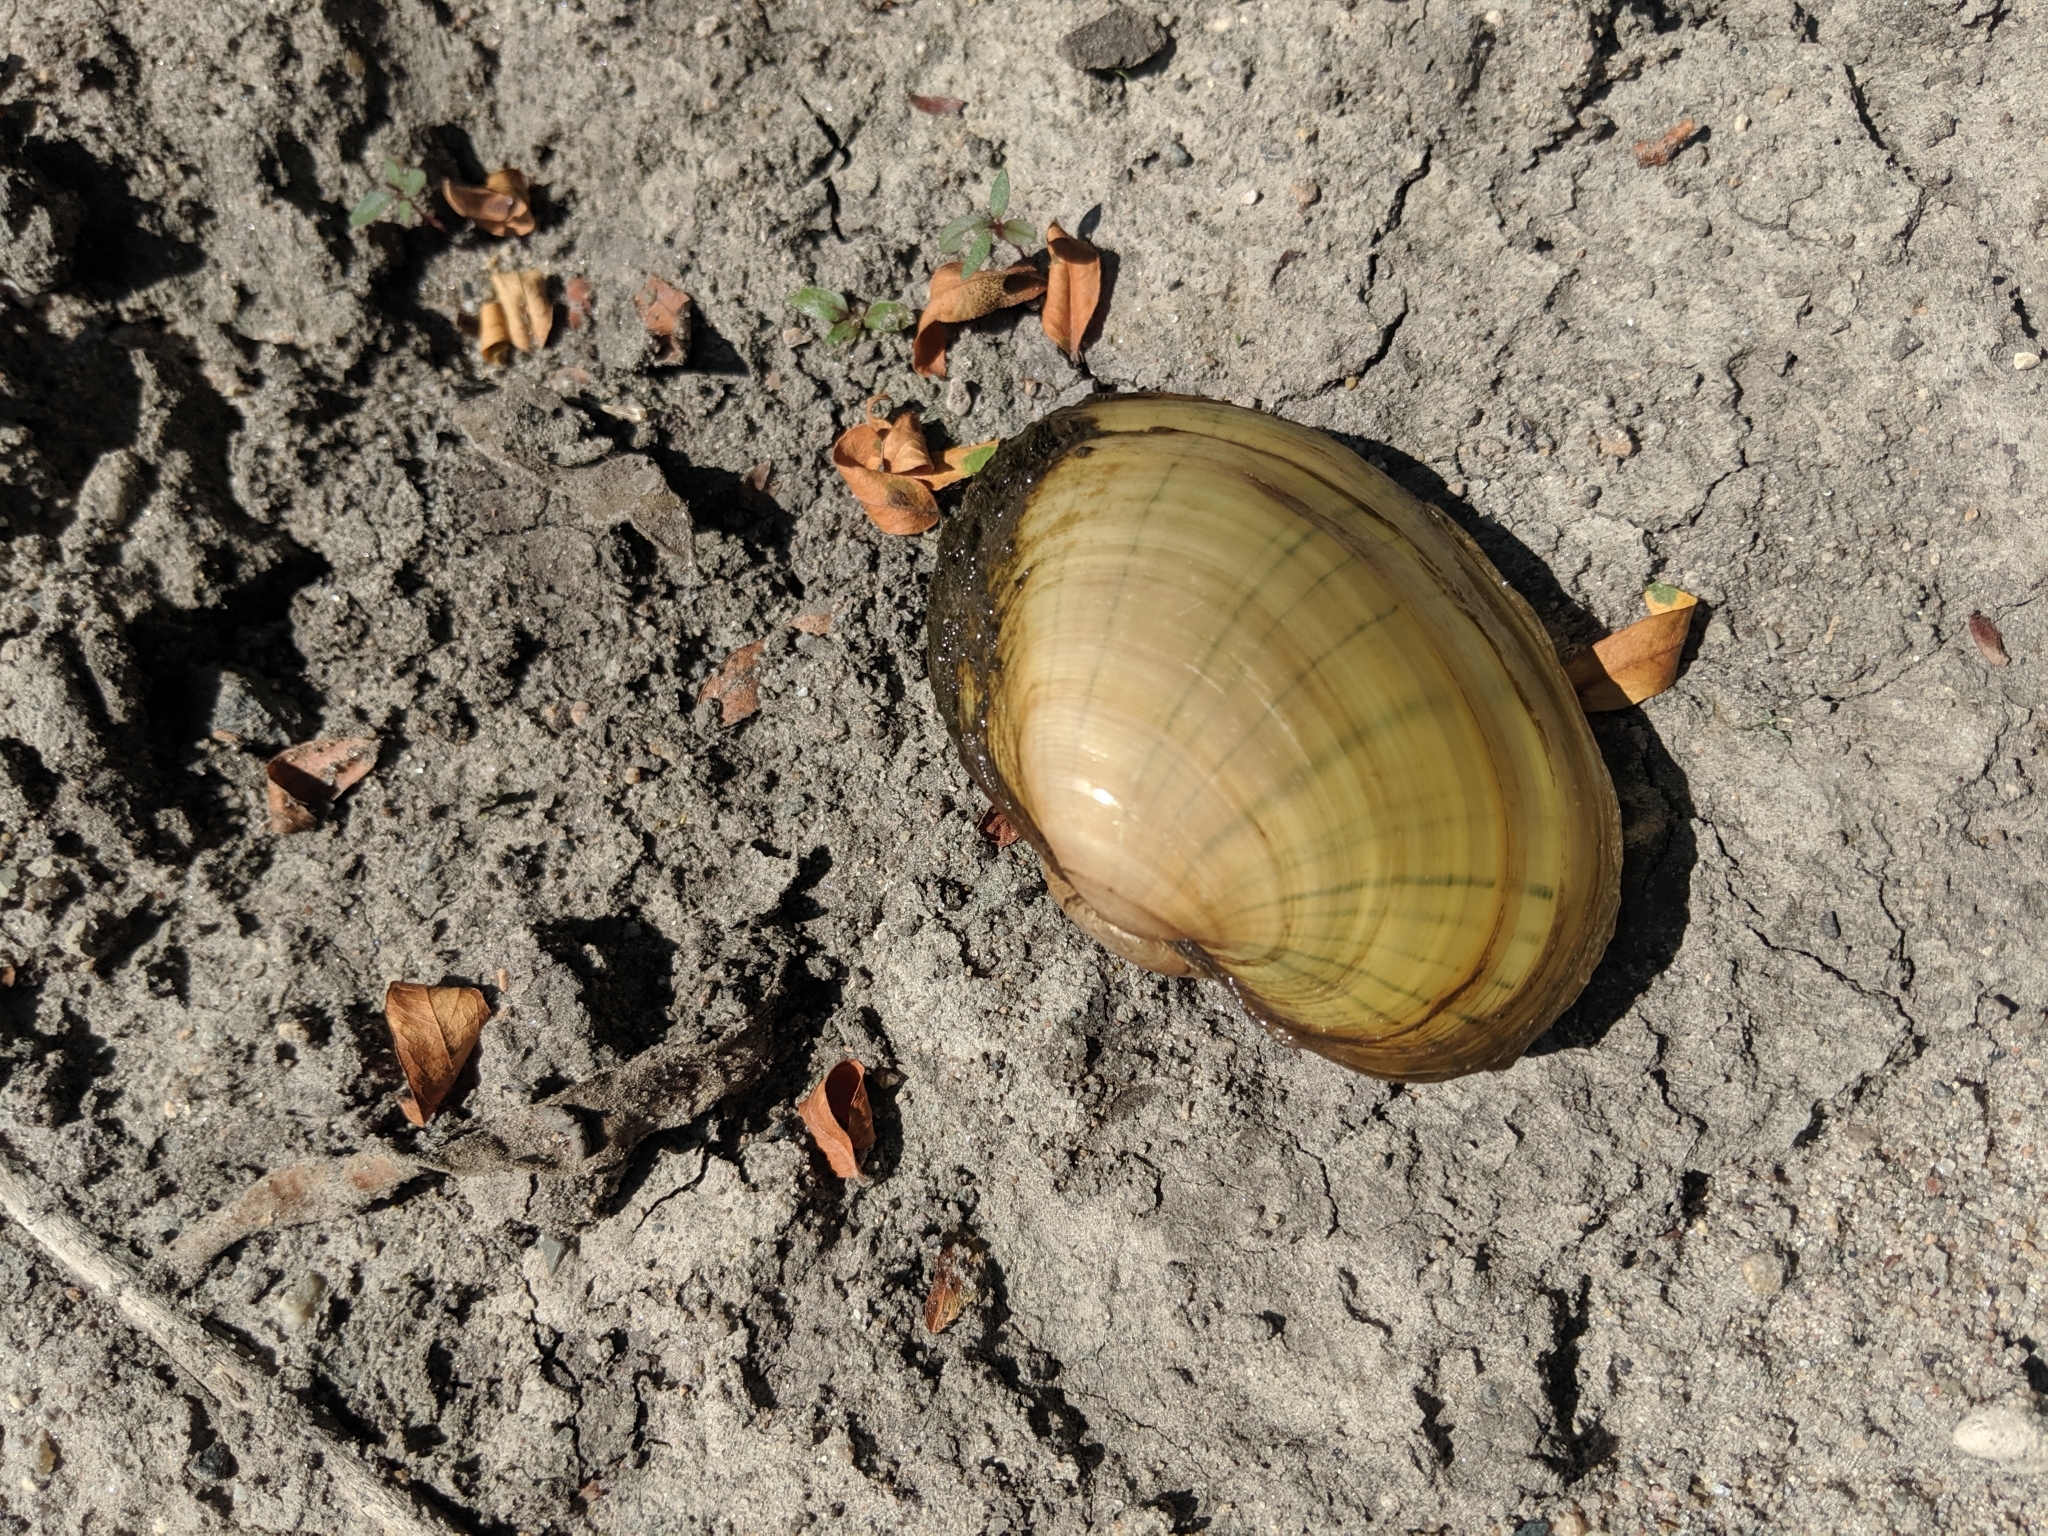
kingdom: Animalia
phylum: Mollusca
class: Bivalvia
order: Unionida
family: Unionidae
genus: Lampsilis
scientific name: Lampsilis cardium
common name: Plain pocketbook
